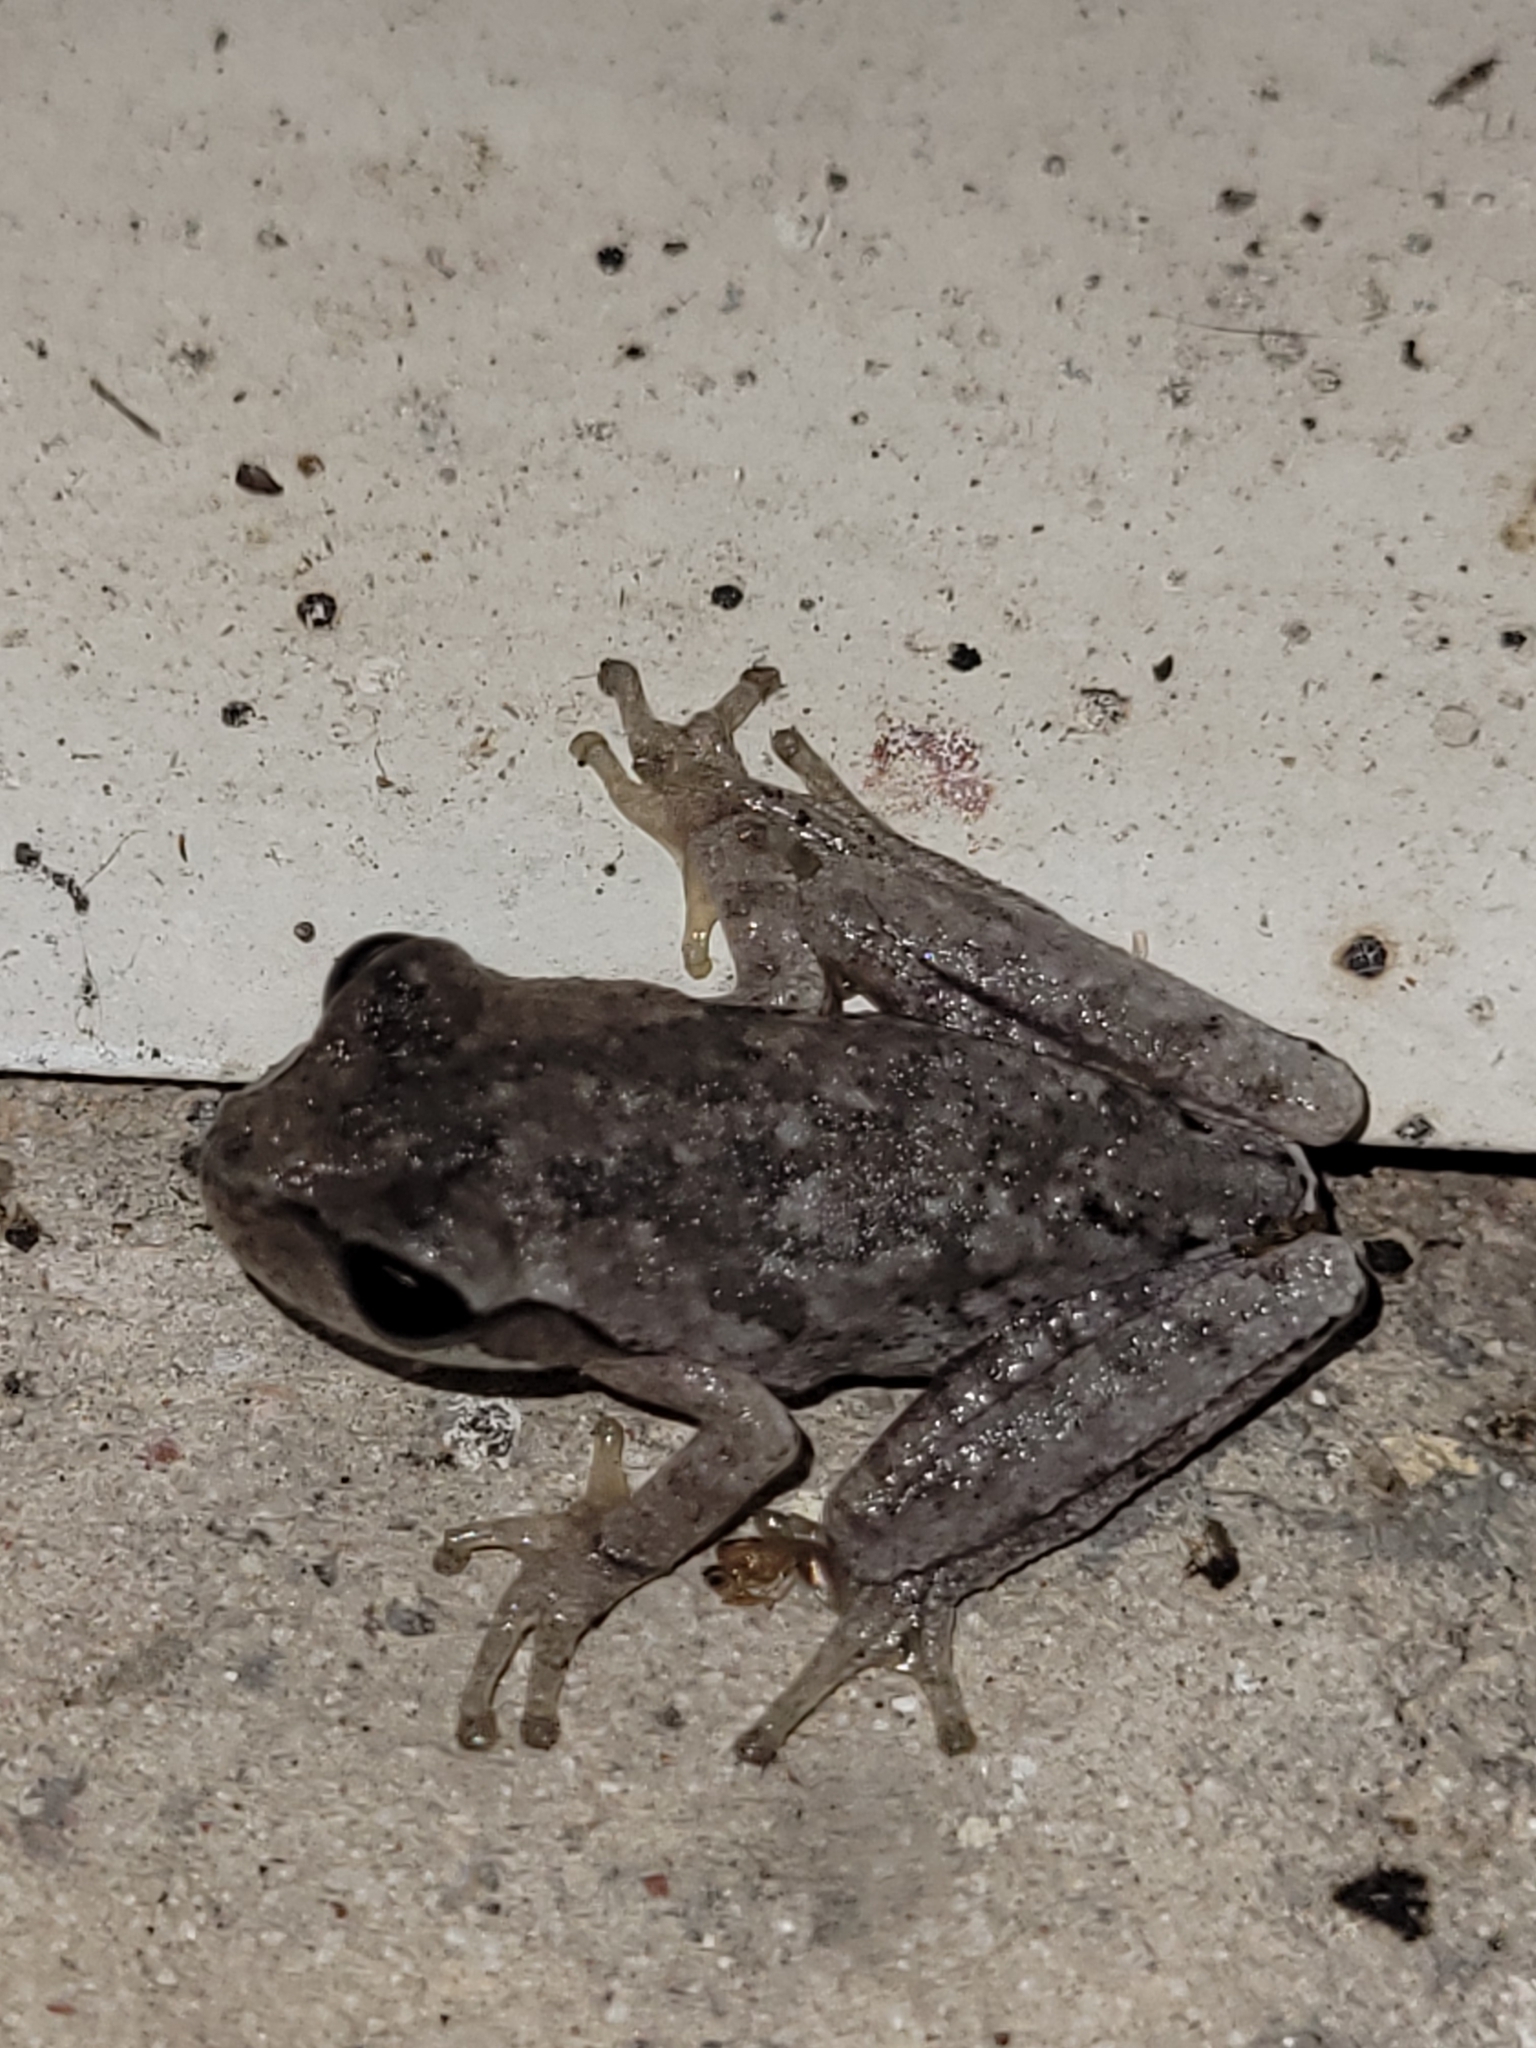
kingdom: Animalia
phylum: Chordata
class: Amphibia
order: Anura
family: Hylidae
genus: Hyla
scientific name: Hyla femoralis
